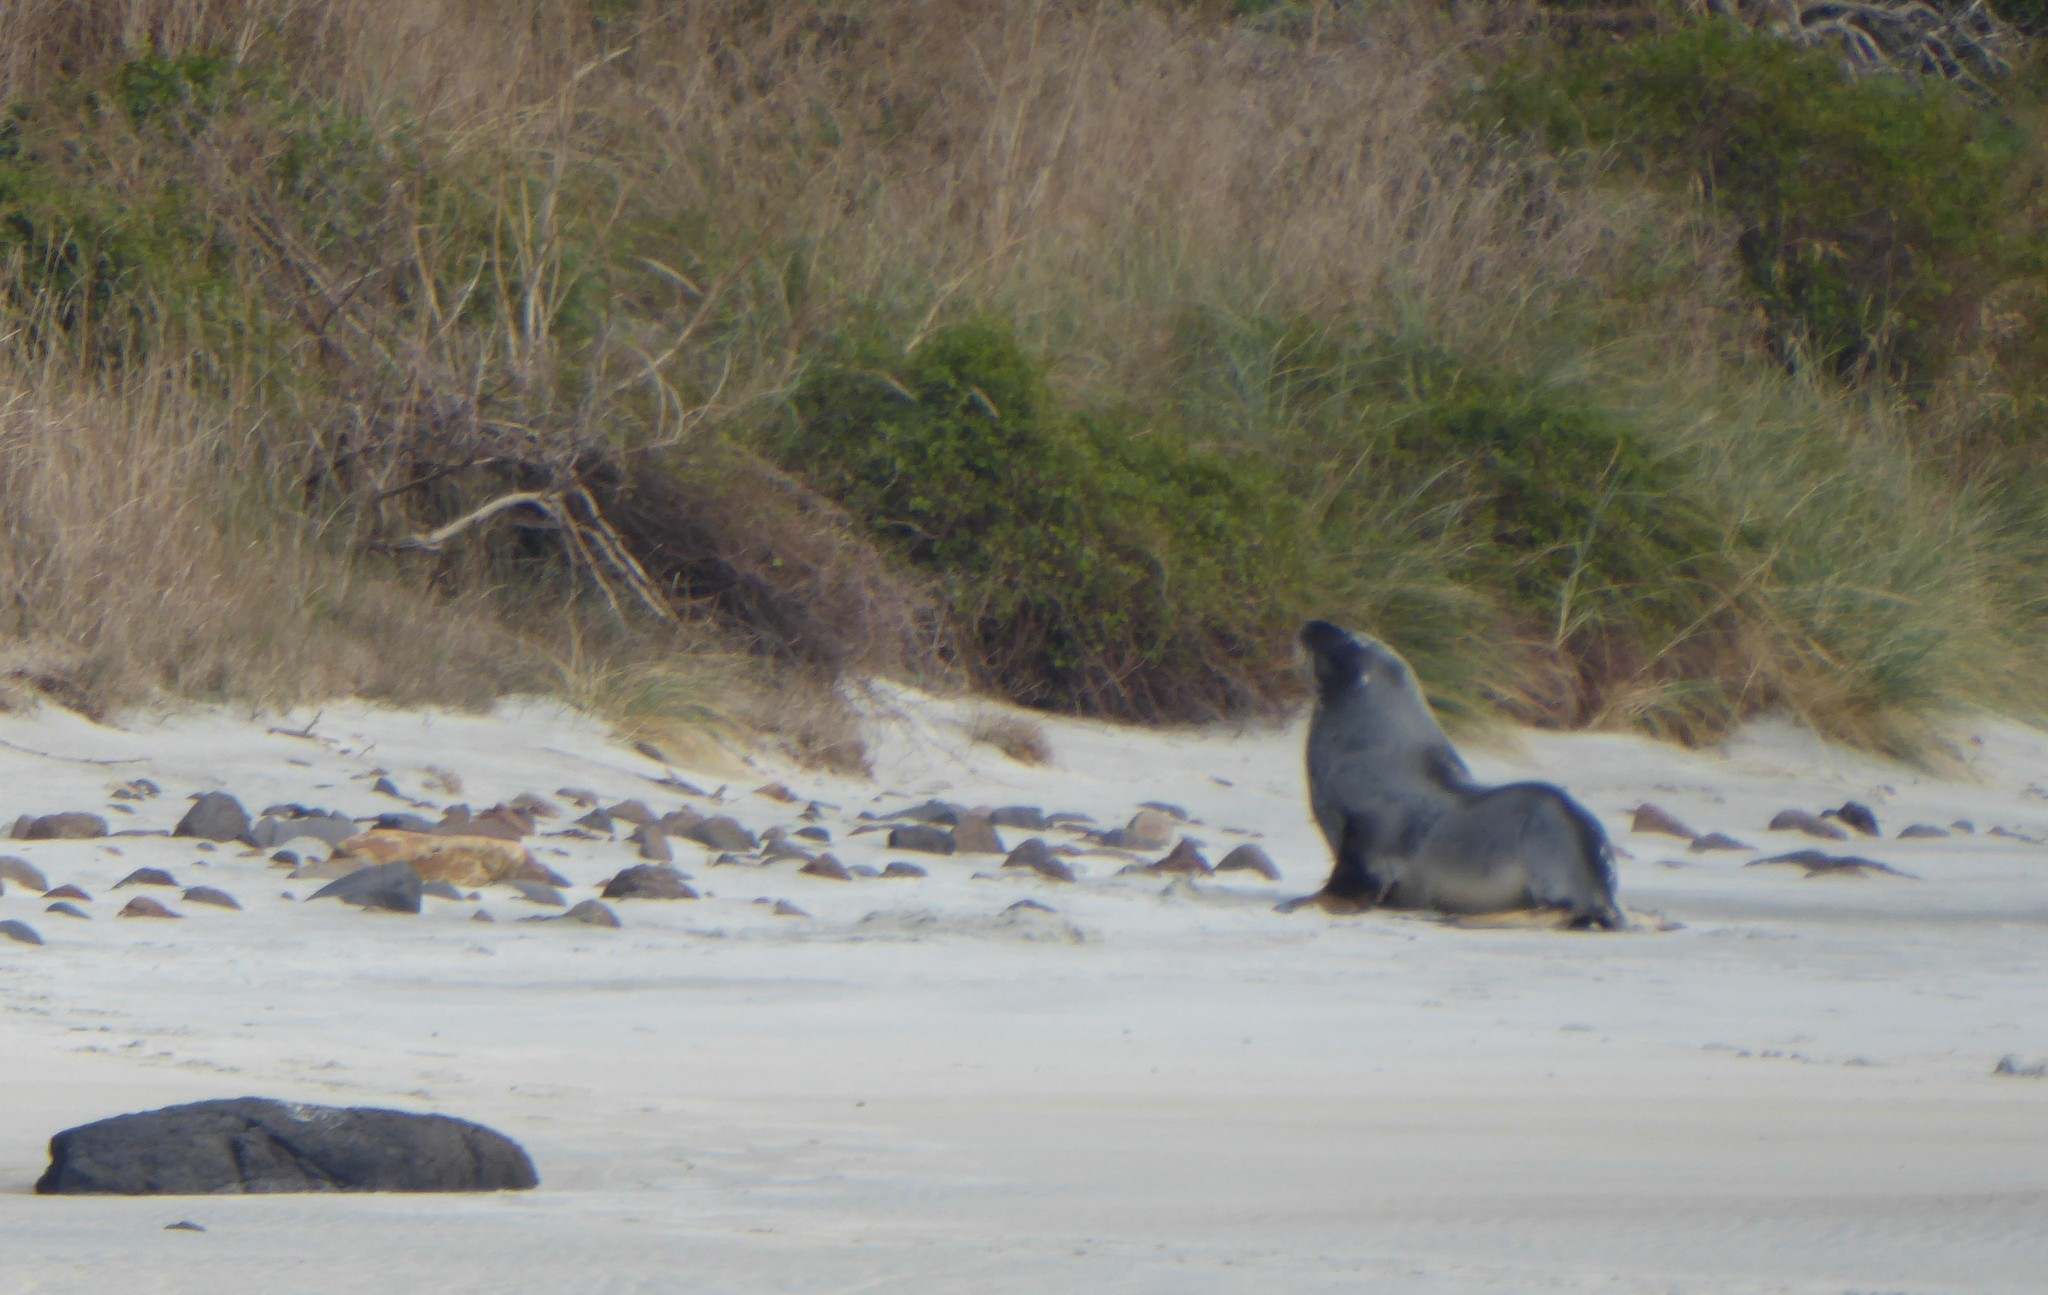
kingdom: Animalia
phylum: Chordata
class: Mammalia
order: Carnivora
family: Otariidae
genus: Phocarctos
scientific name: Phocarctos hookeri
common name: New zealand sea lion
